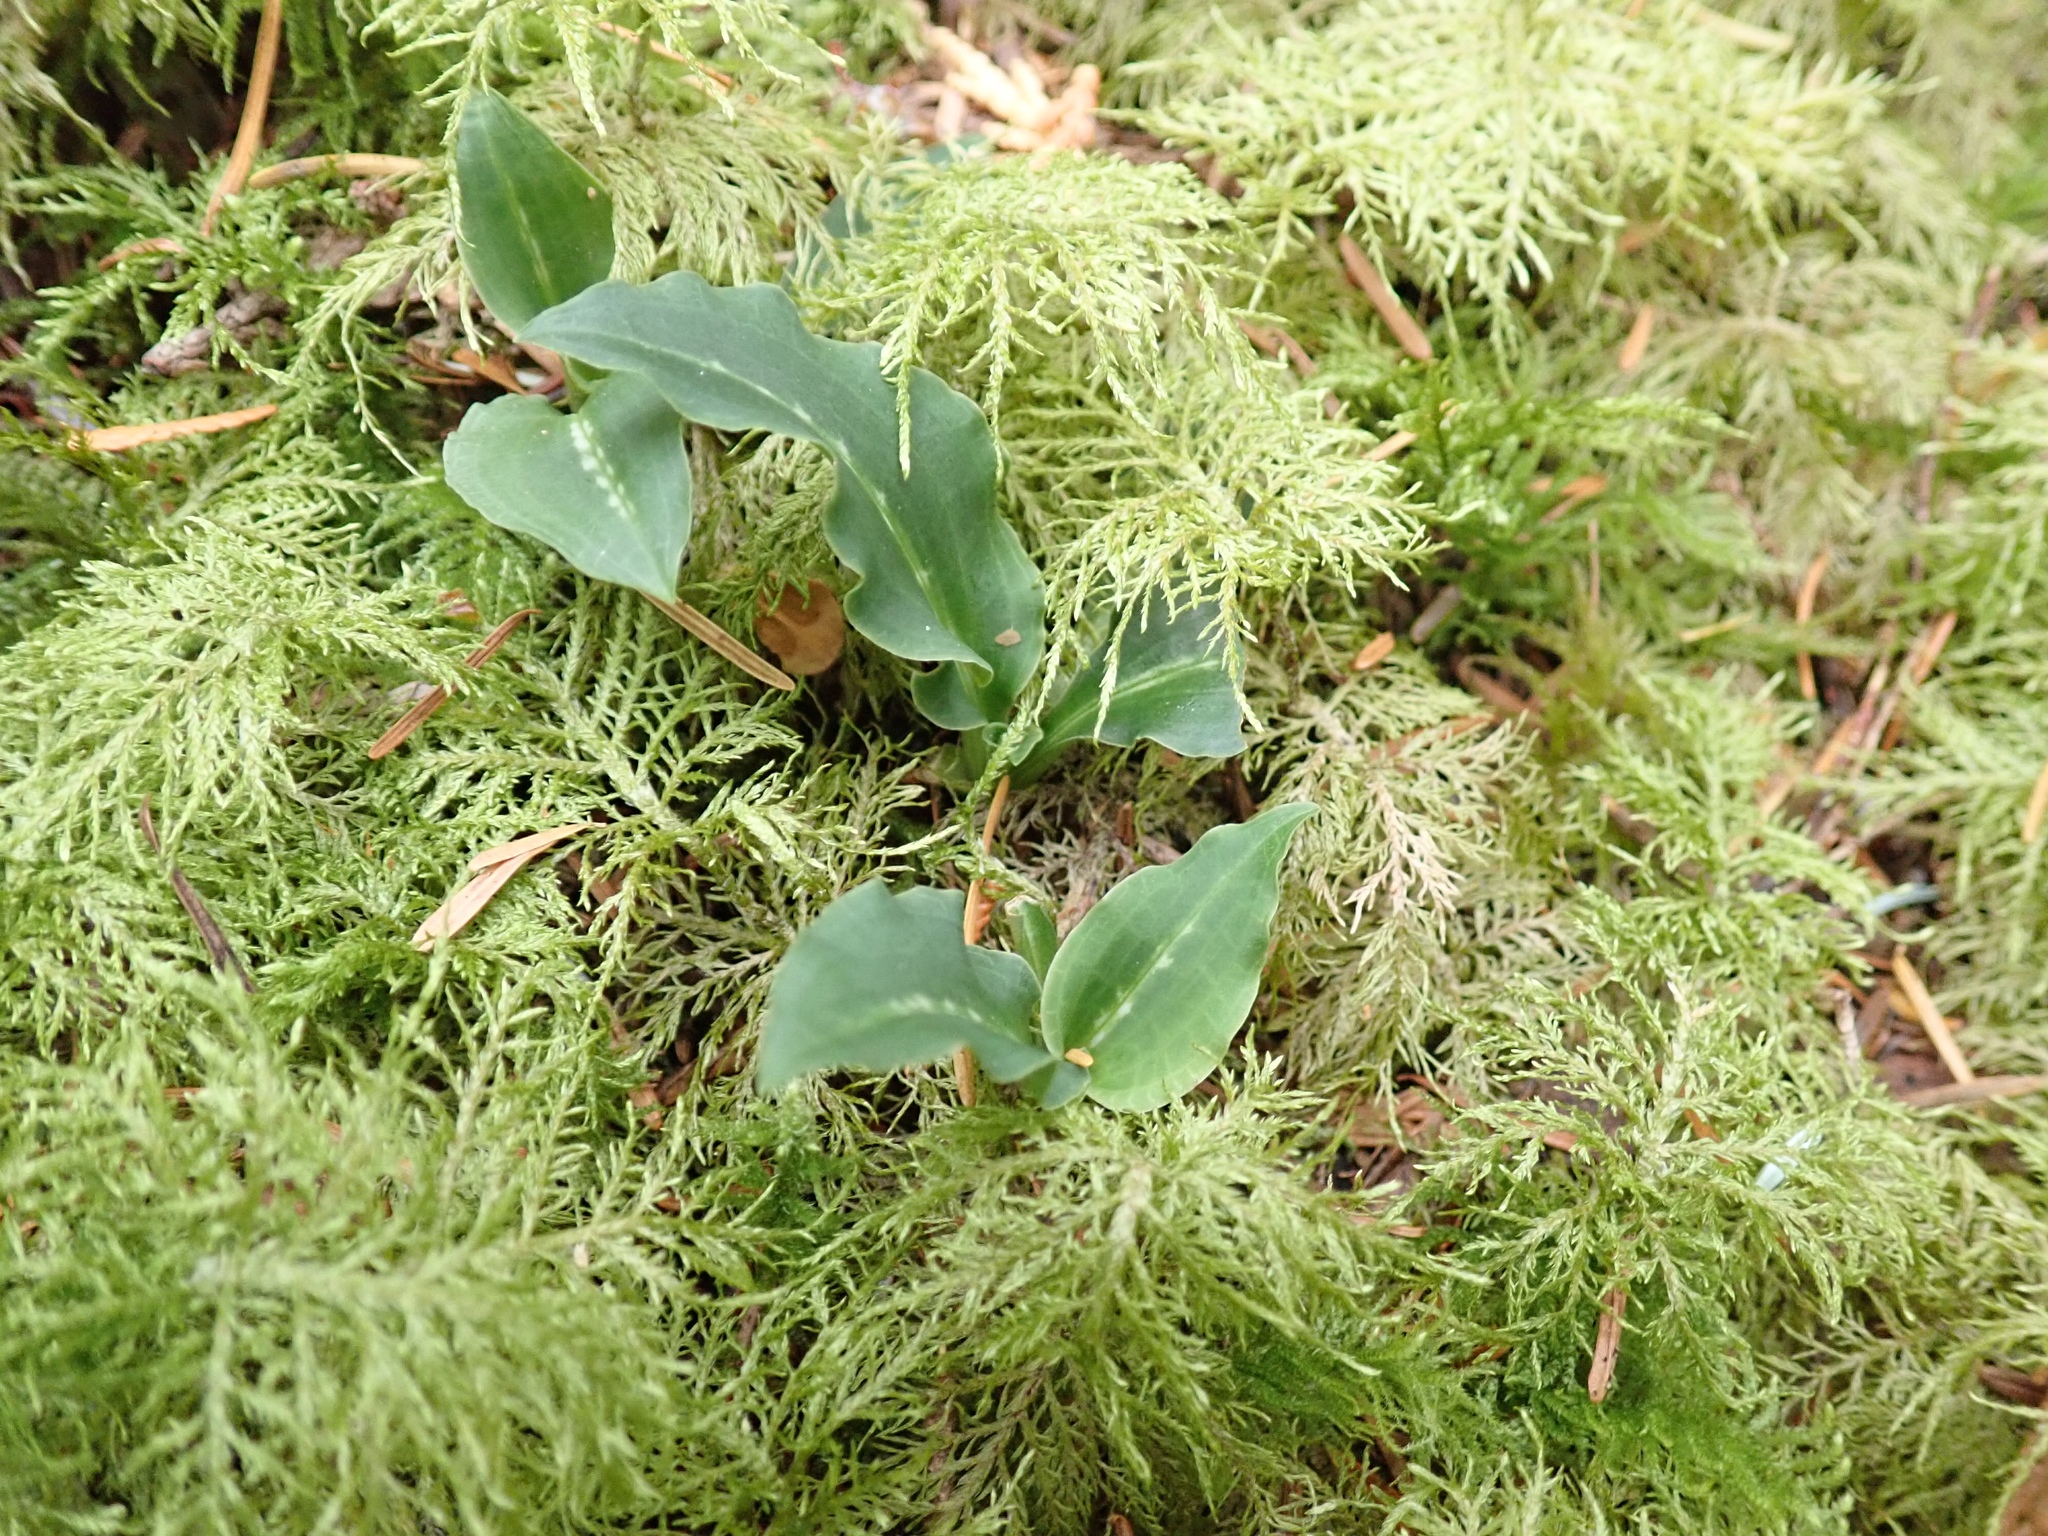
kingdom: Plantae
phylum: Tracheophyta
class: Liliopsida
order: Asparagales
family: Orchidaceae
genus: Goodyera
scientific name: Goodyera oblongifolia
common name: Giant rattlesnake-plantain
